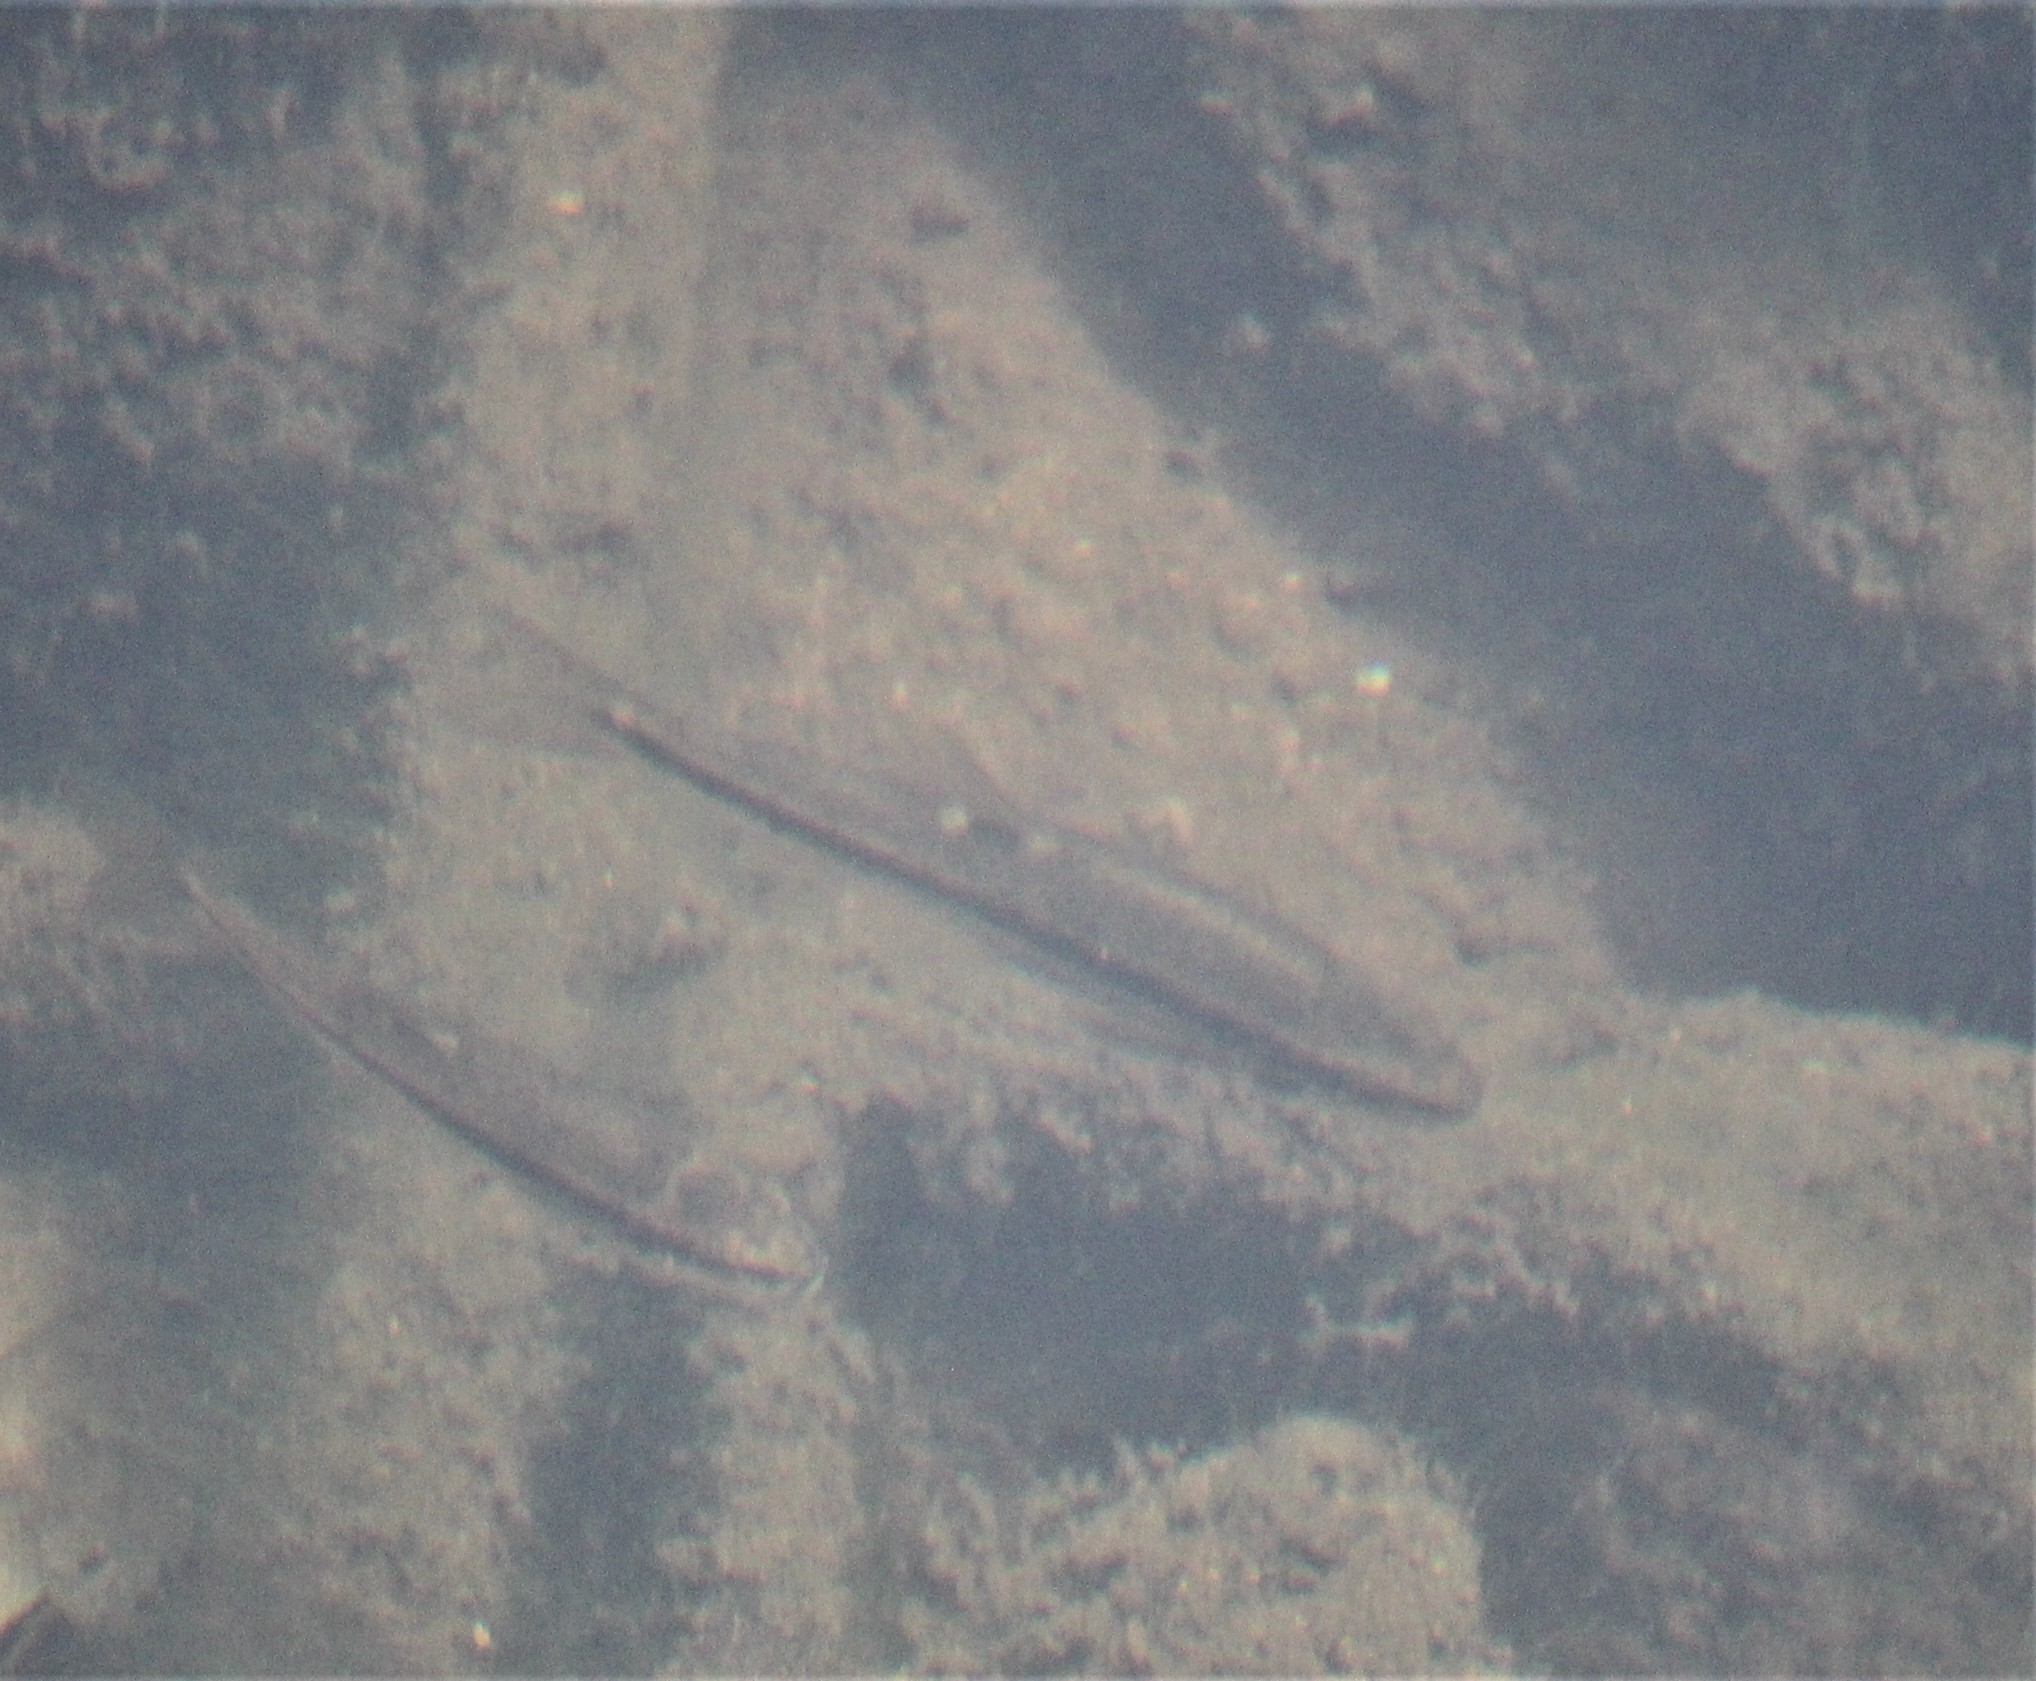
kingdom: Animalia
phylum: Chordata
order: Cypriniformes
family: Cyprinidae
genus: Rhinichthys
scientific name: Rhinichthys obtusus
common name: Western blacknose dace
